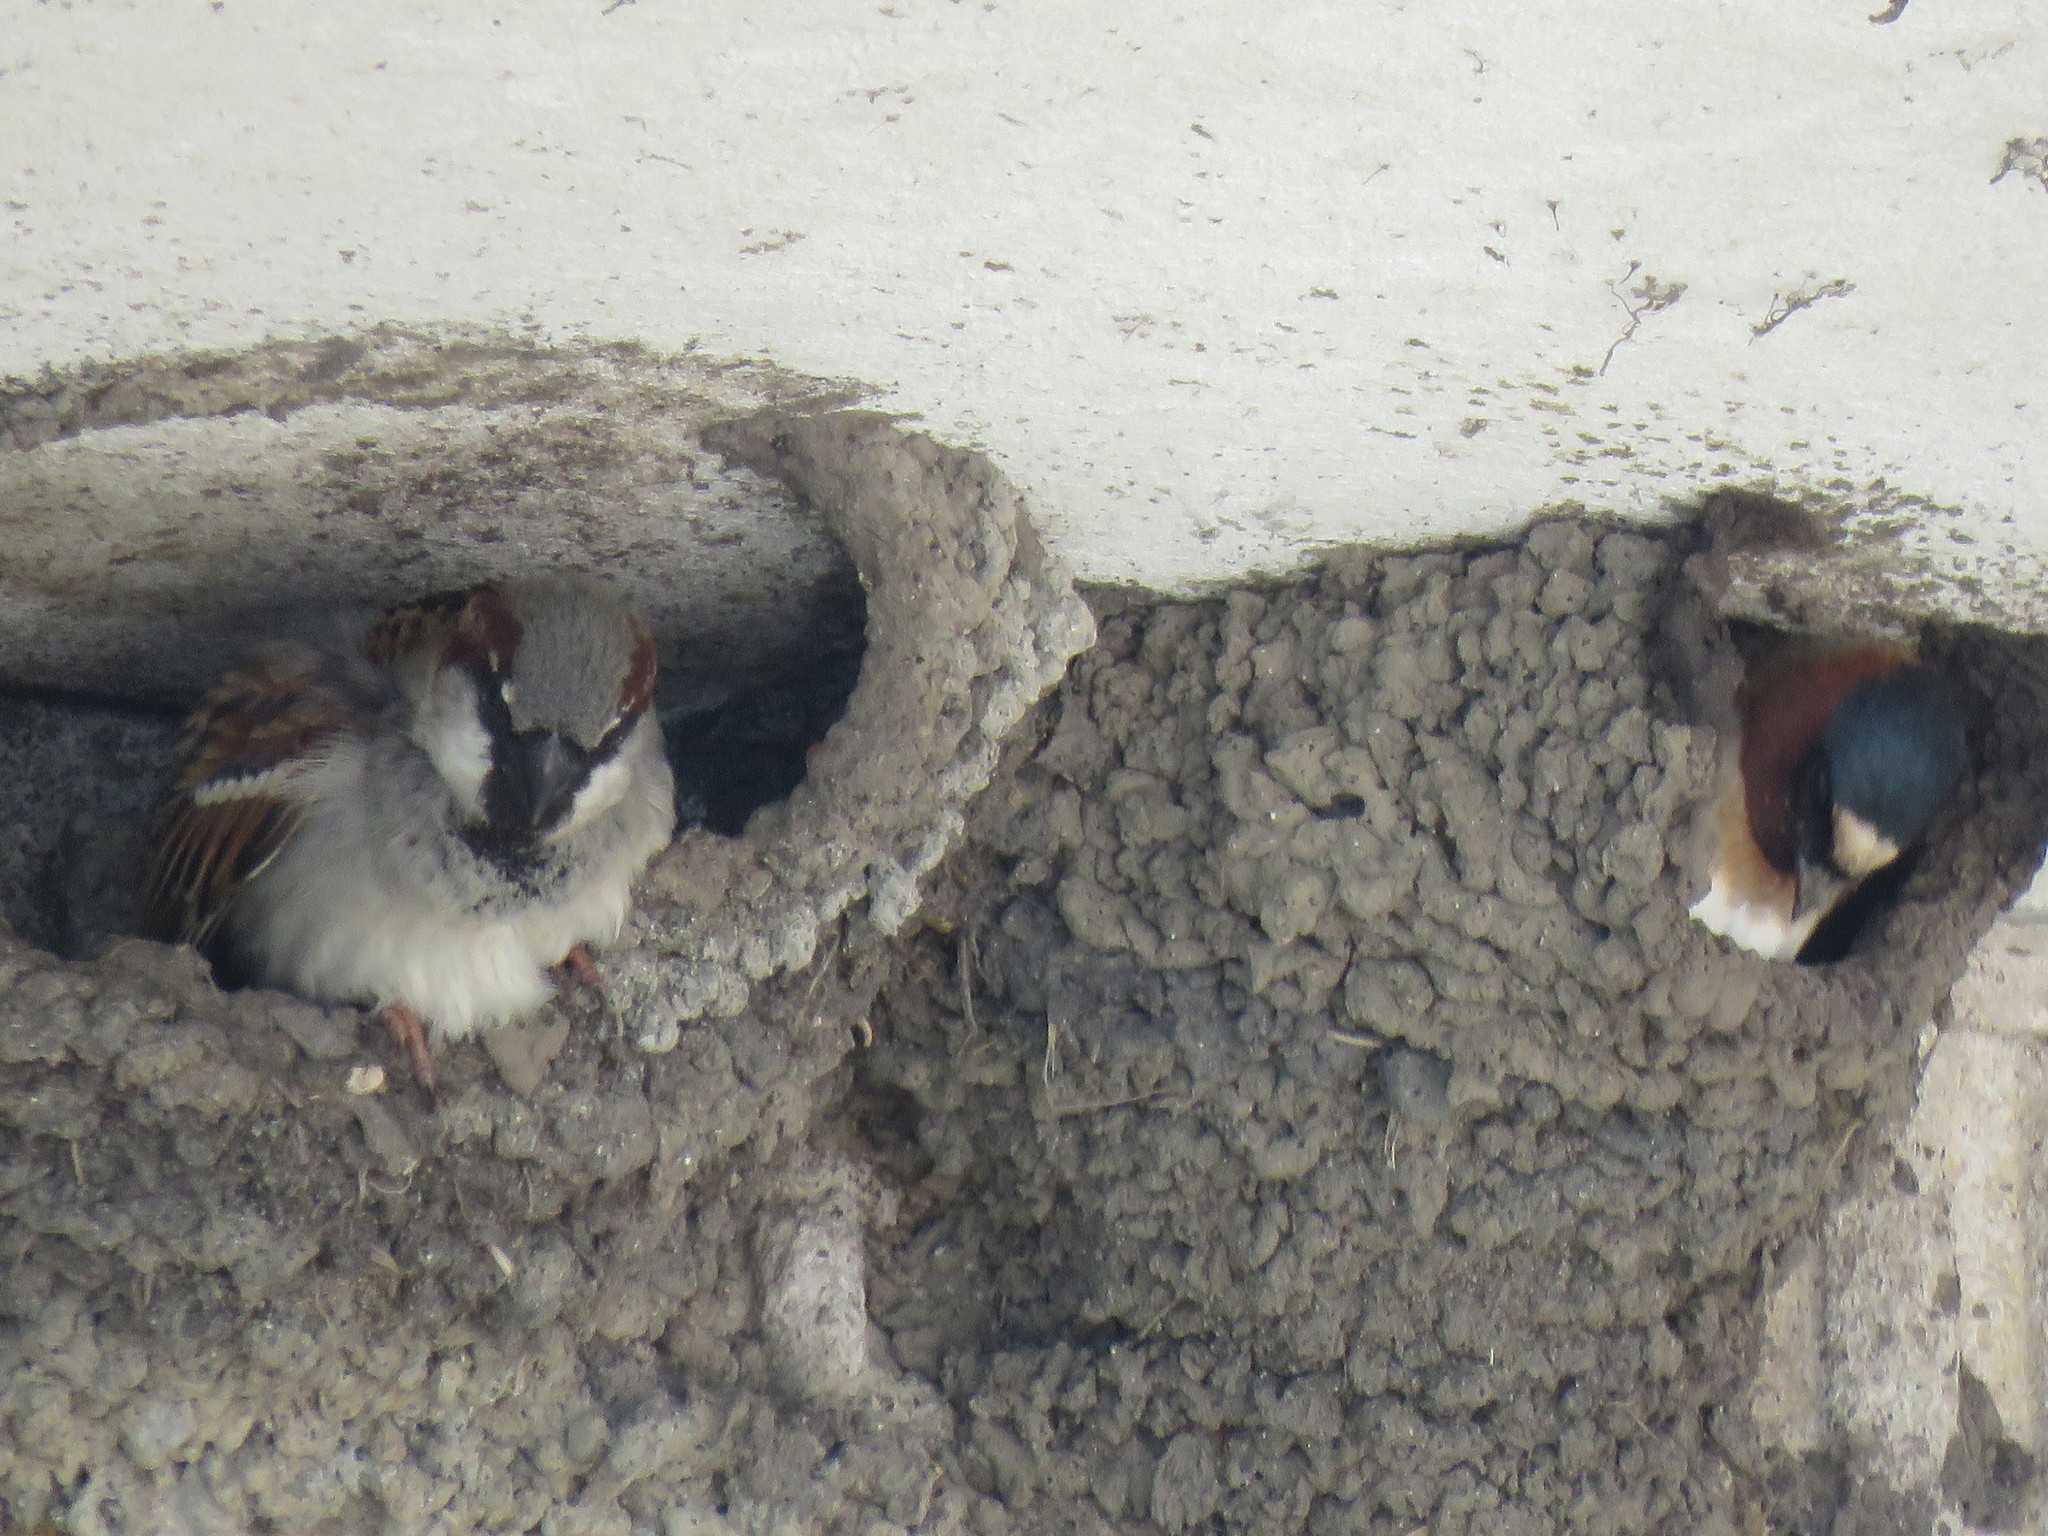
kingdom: Animalia
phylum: Chordata
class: Aves
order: Passeriformes
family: Hirundinidae
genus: Petrochelidon
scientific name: Petrochelidon pyrrhonota
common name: American cliff swallow
